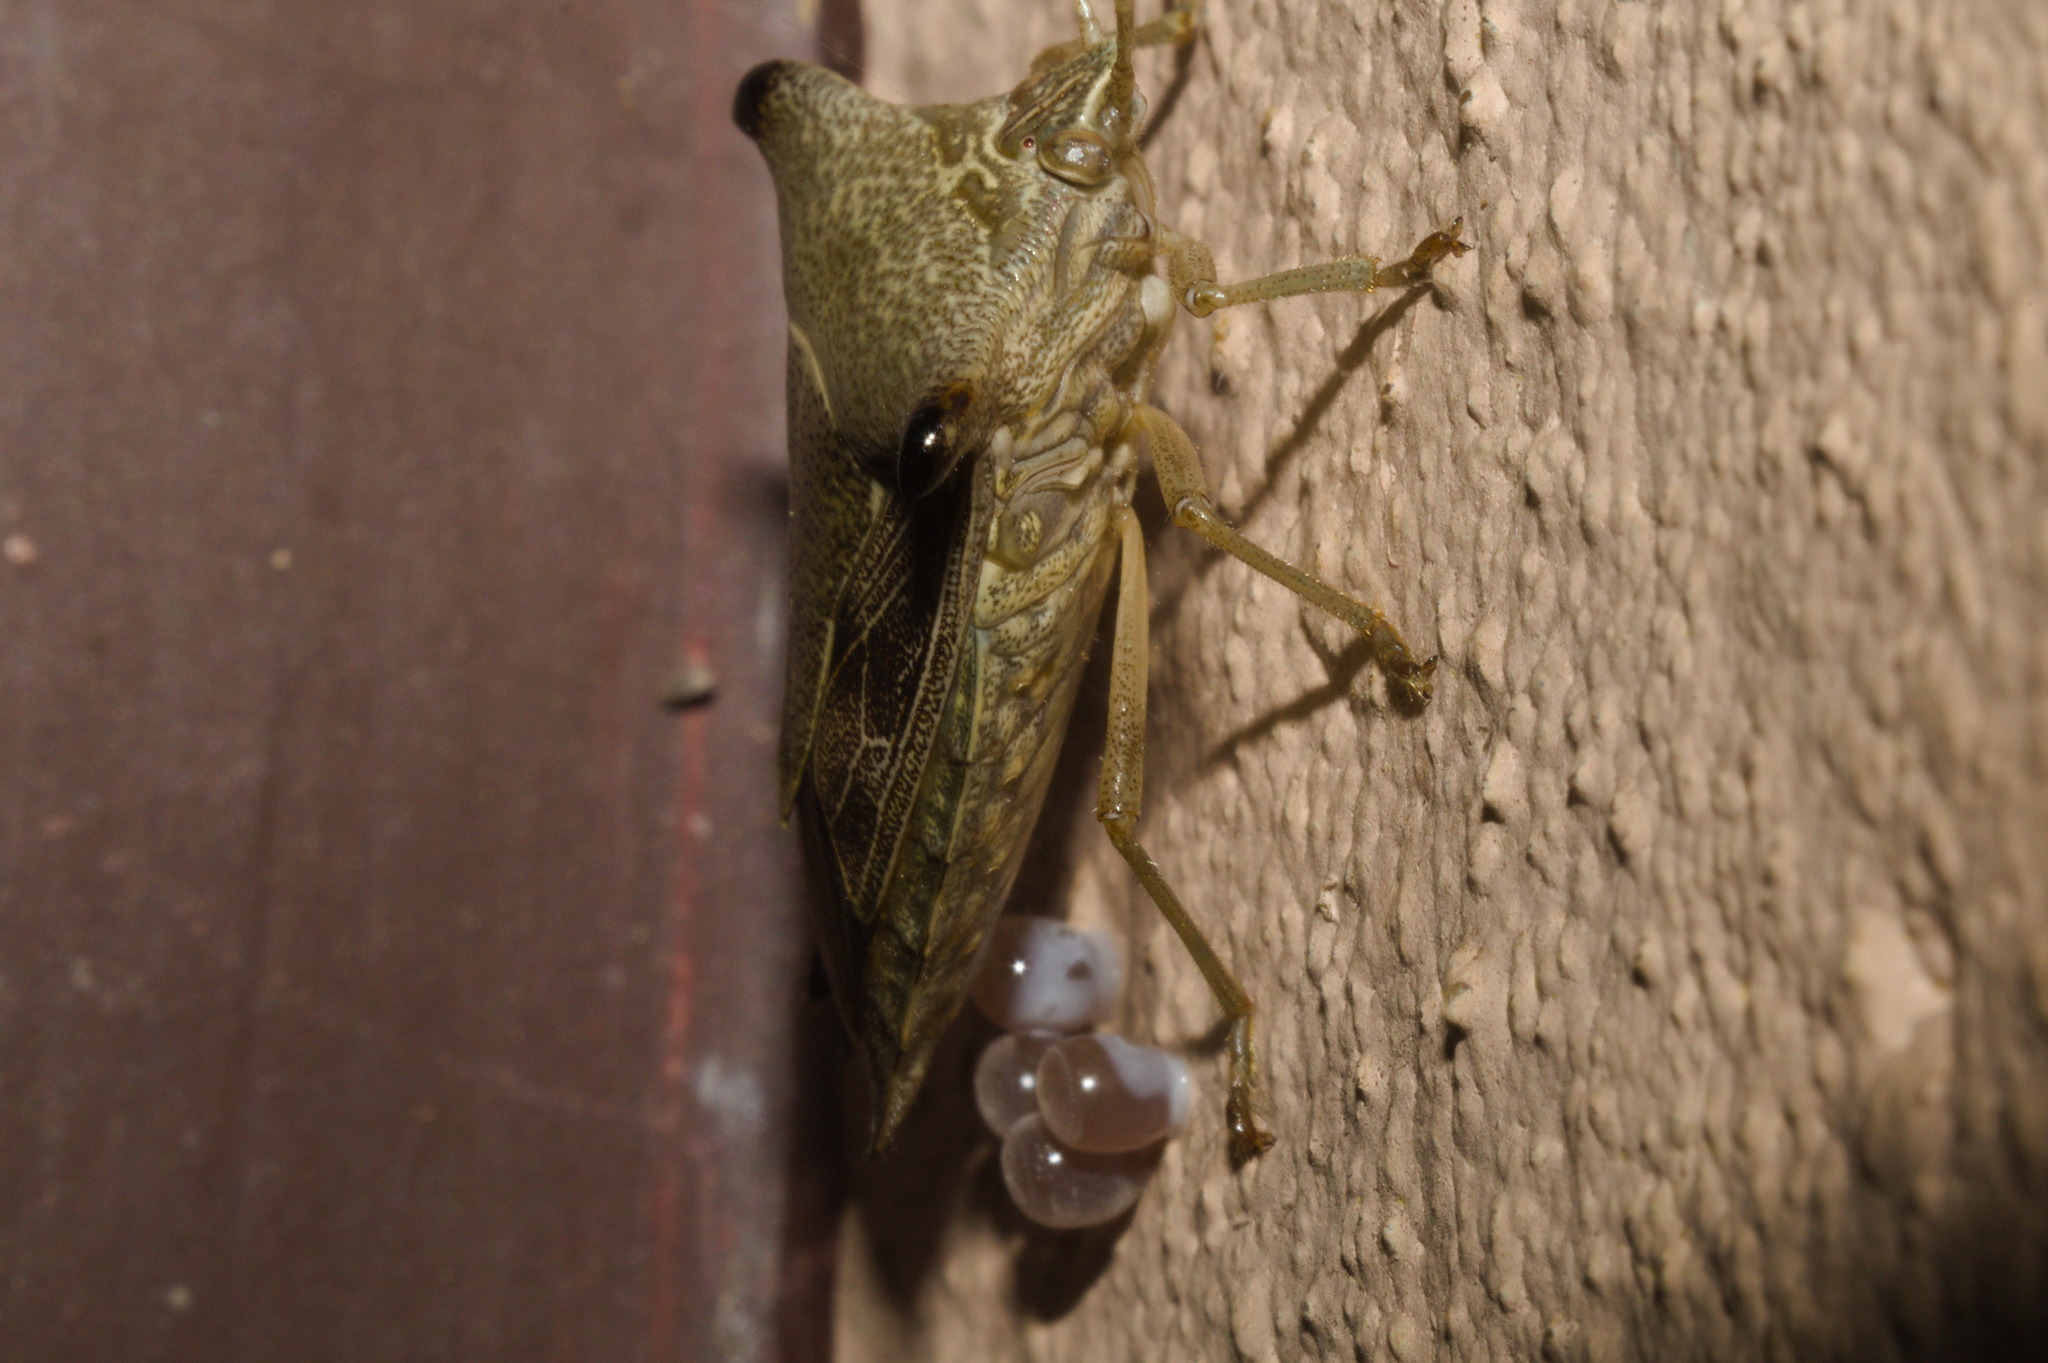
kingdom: Animalia
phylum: Arthropoda
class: Insecta
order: Hemiptera
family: Pentatomidae
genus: Edessa
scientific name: Edessa
